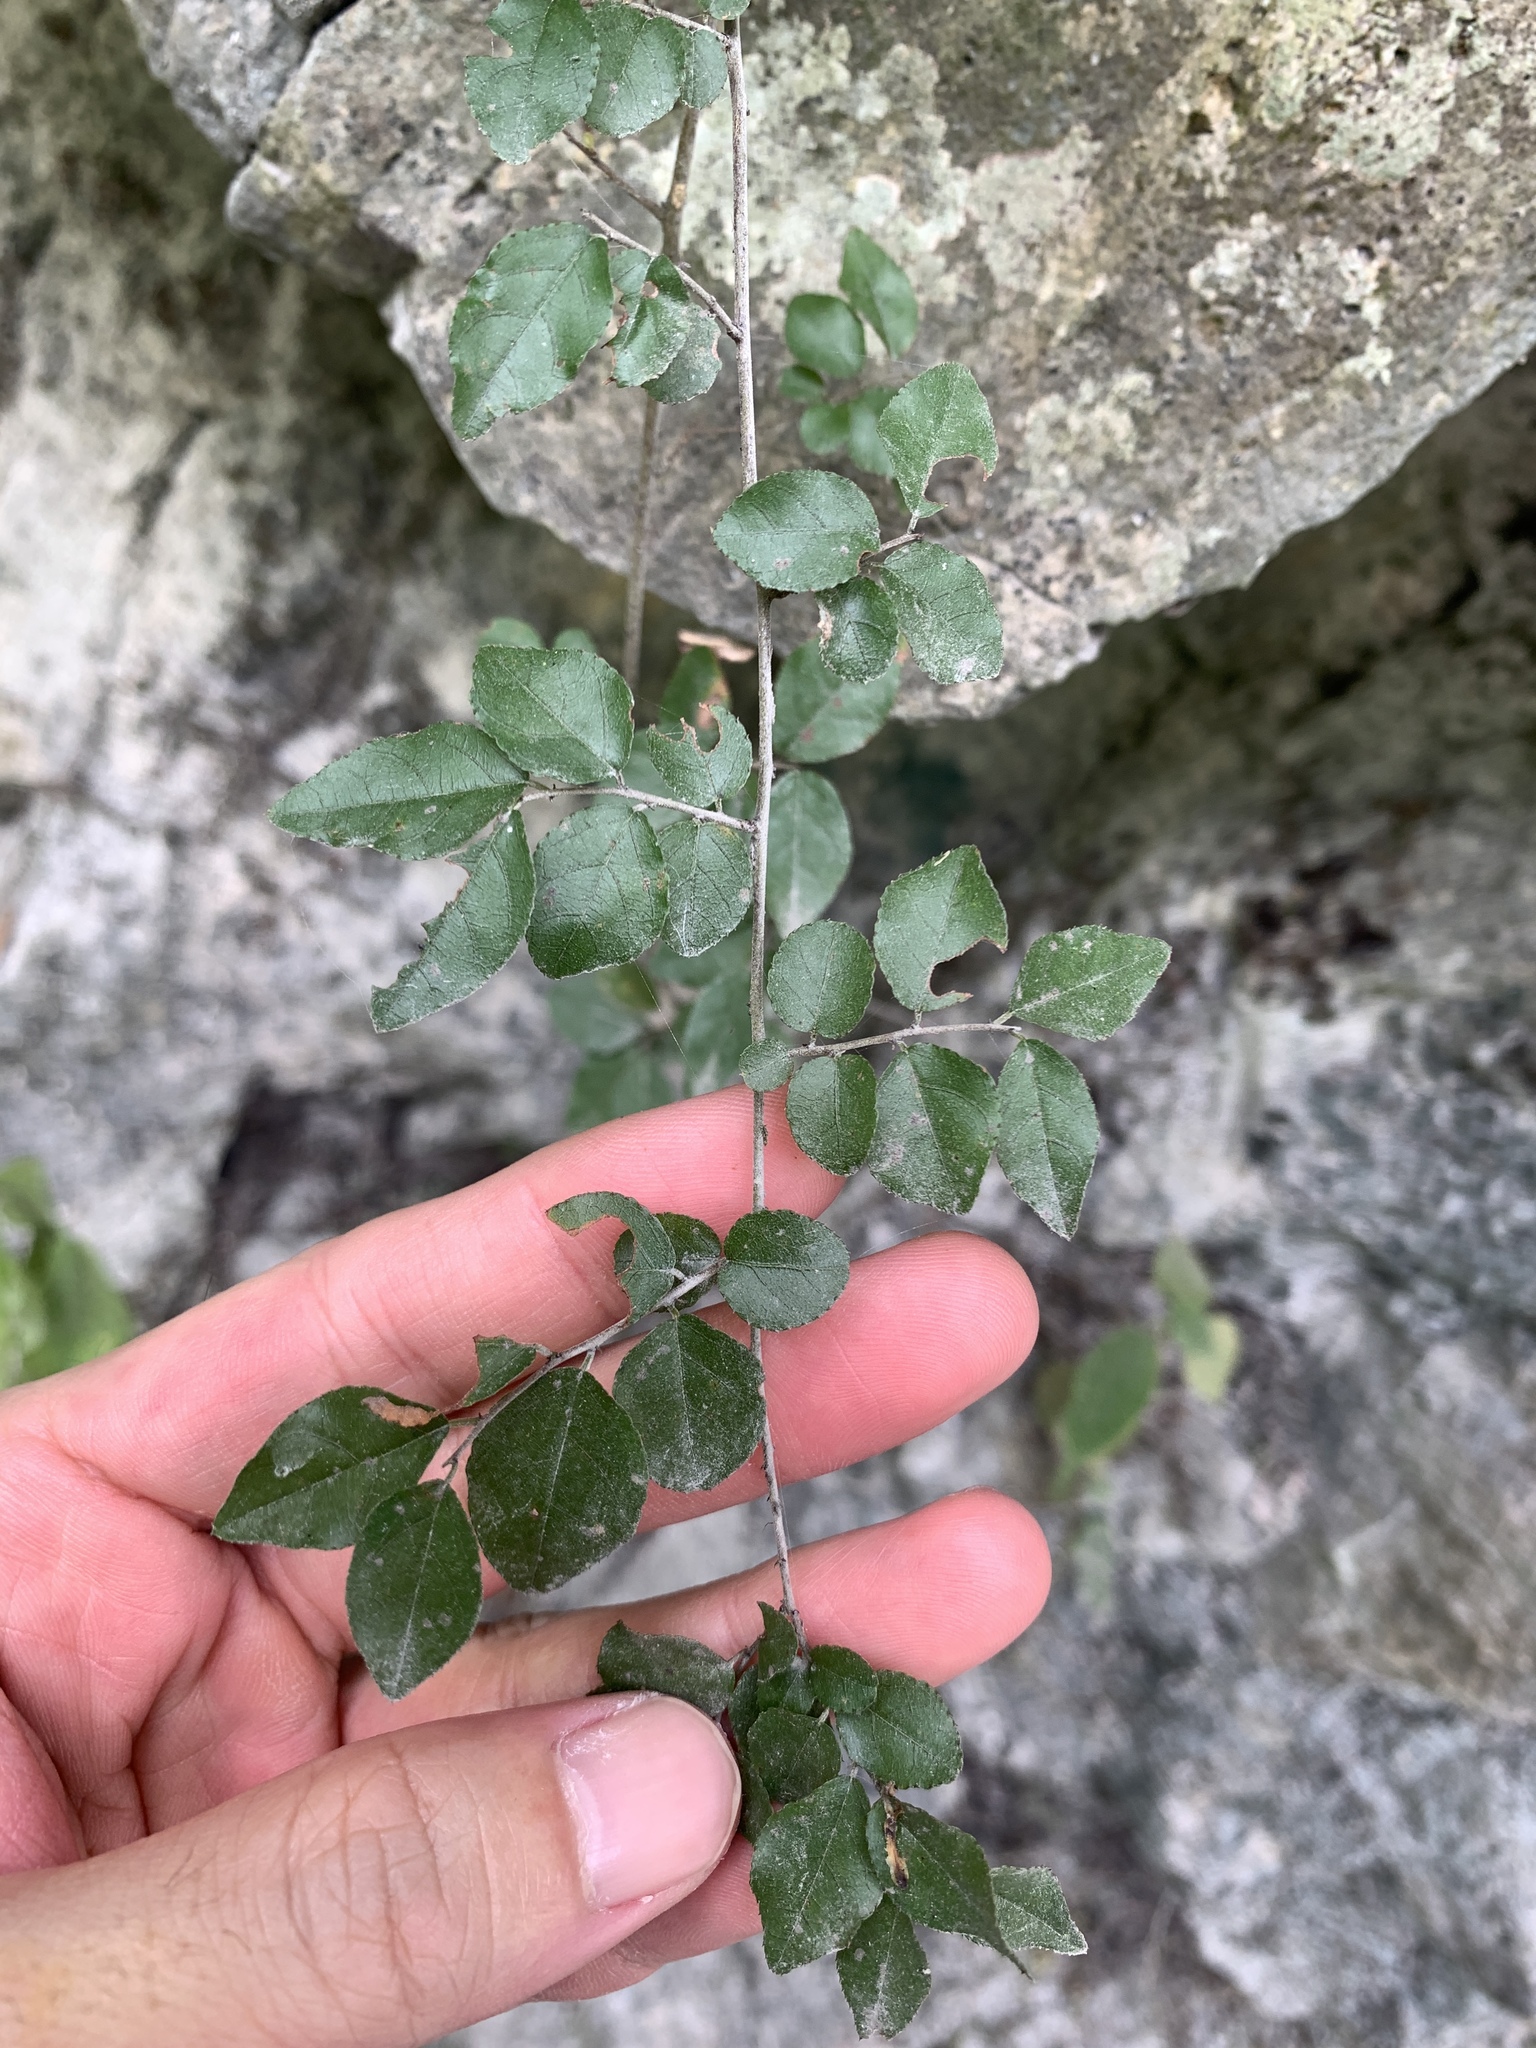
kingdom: Plantae
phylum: Tracheophyta
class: Magnoliopsida
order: Rosales
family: Rhamnaceae
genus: Sageretia
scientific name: Sageretia thea
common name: Pauper's-tea
